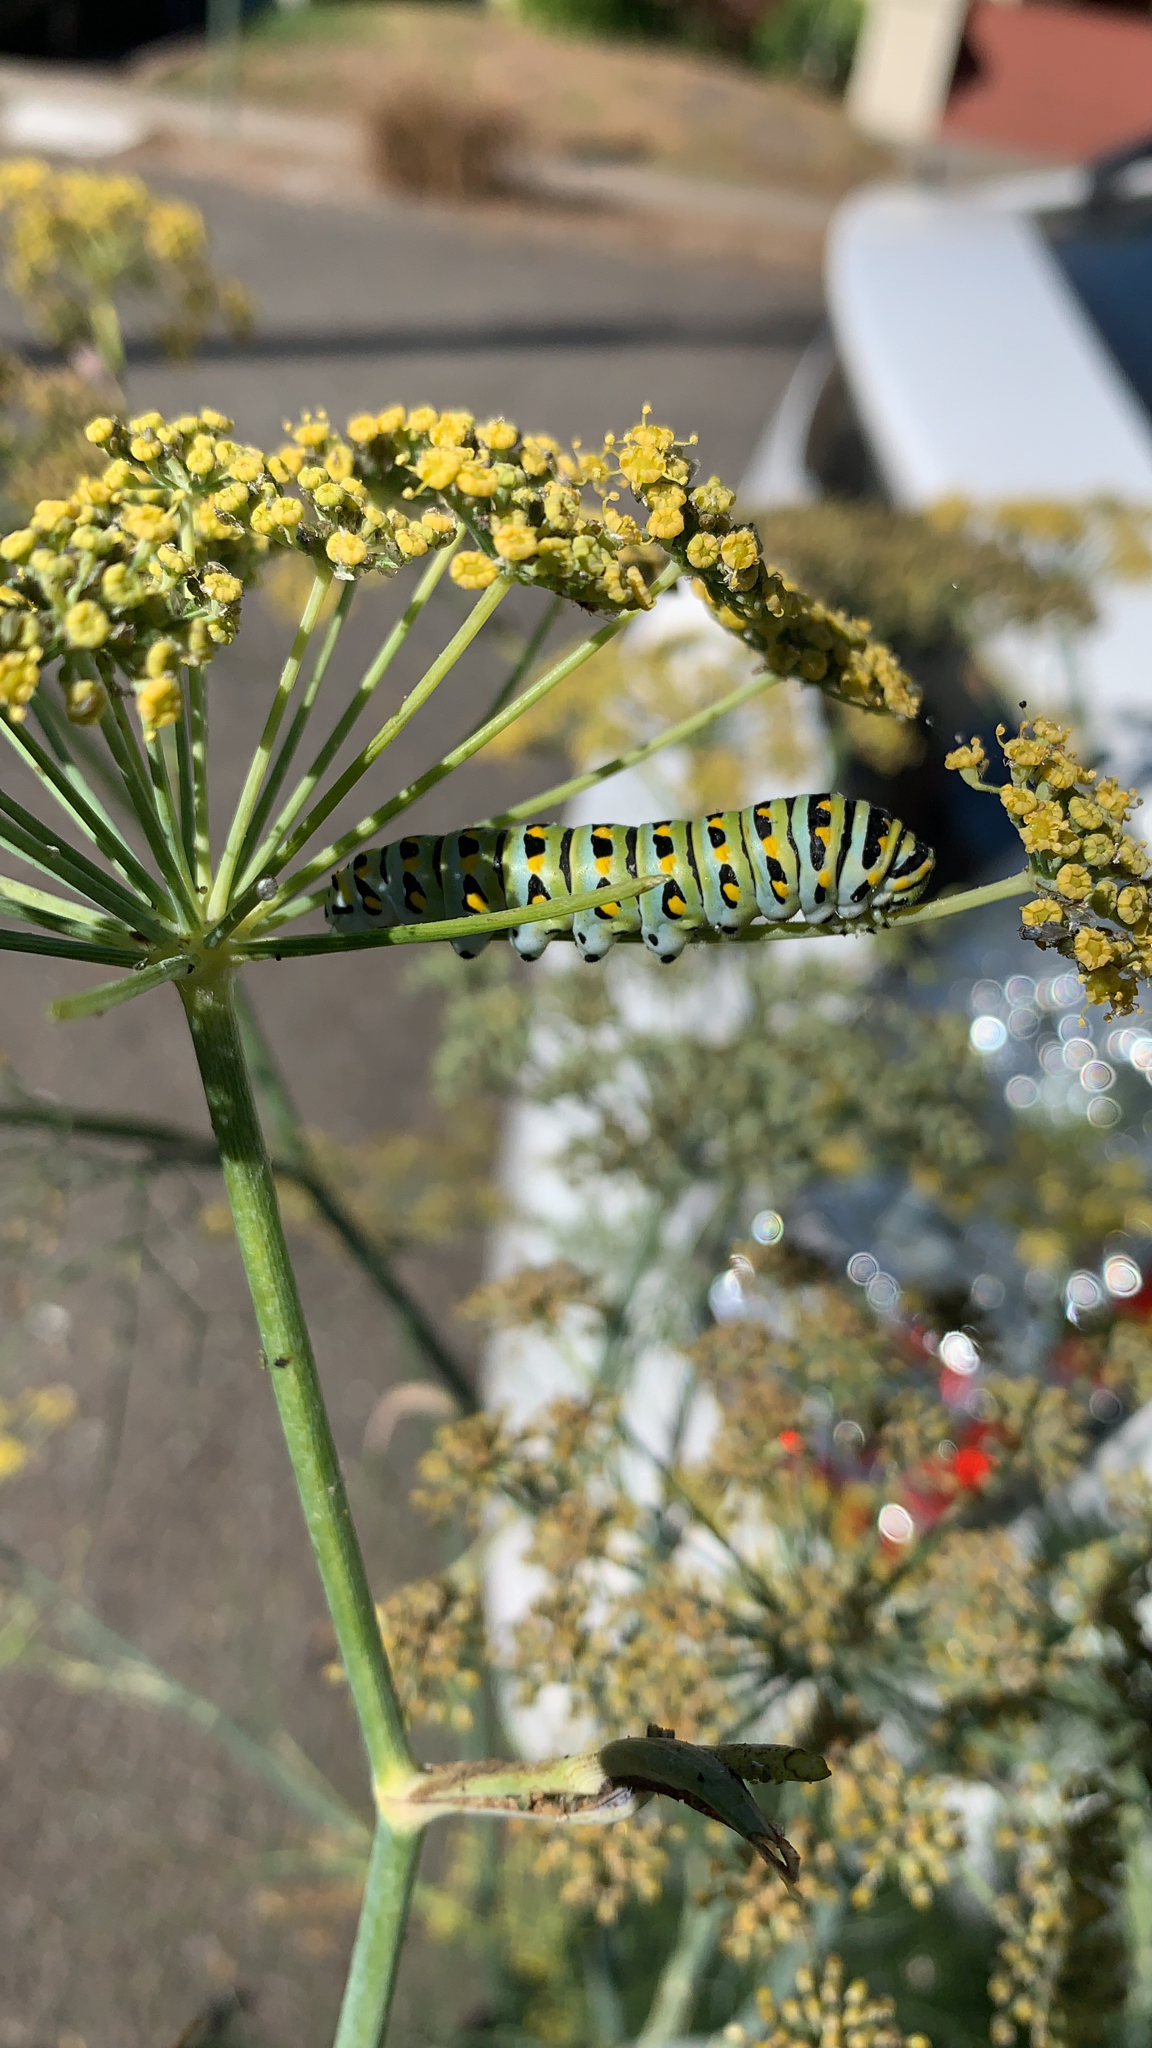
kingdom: Animalia
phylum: Arthropoda
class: Insecta
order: Lepidoptera
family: Papilionidae
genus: Papilio
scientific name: Papilio zelicaon
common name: Anise swallowtail
